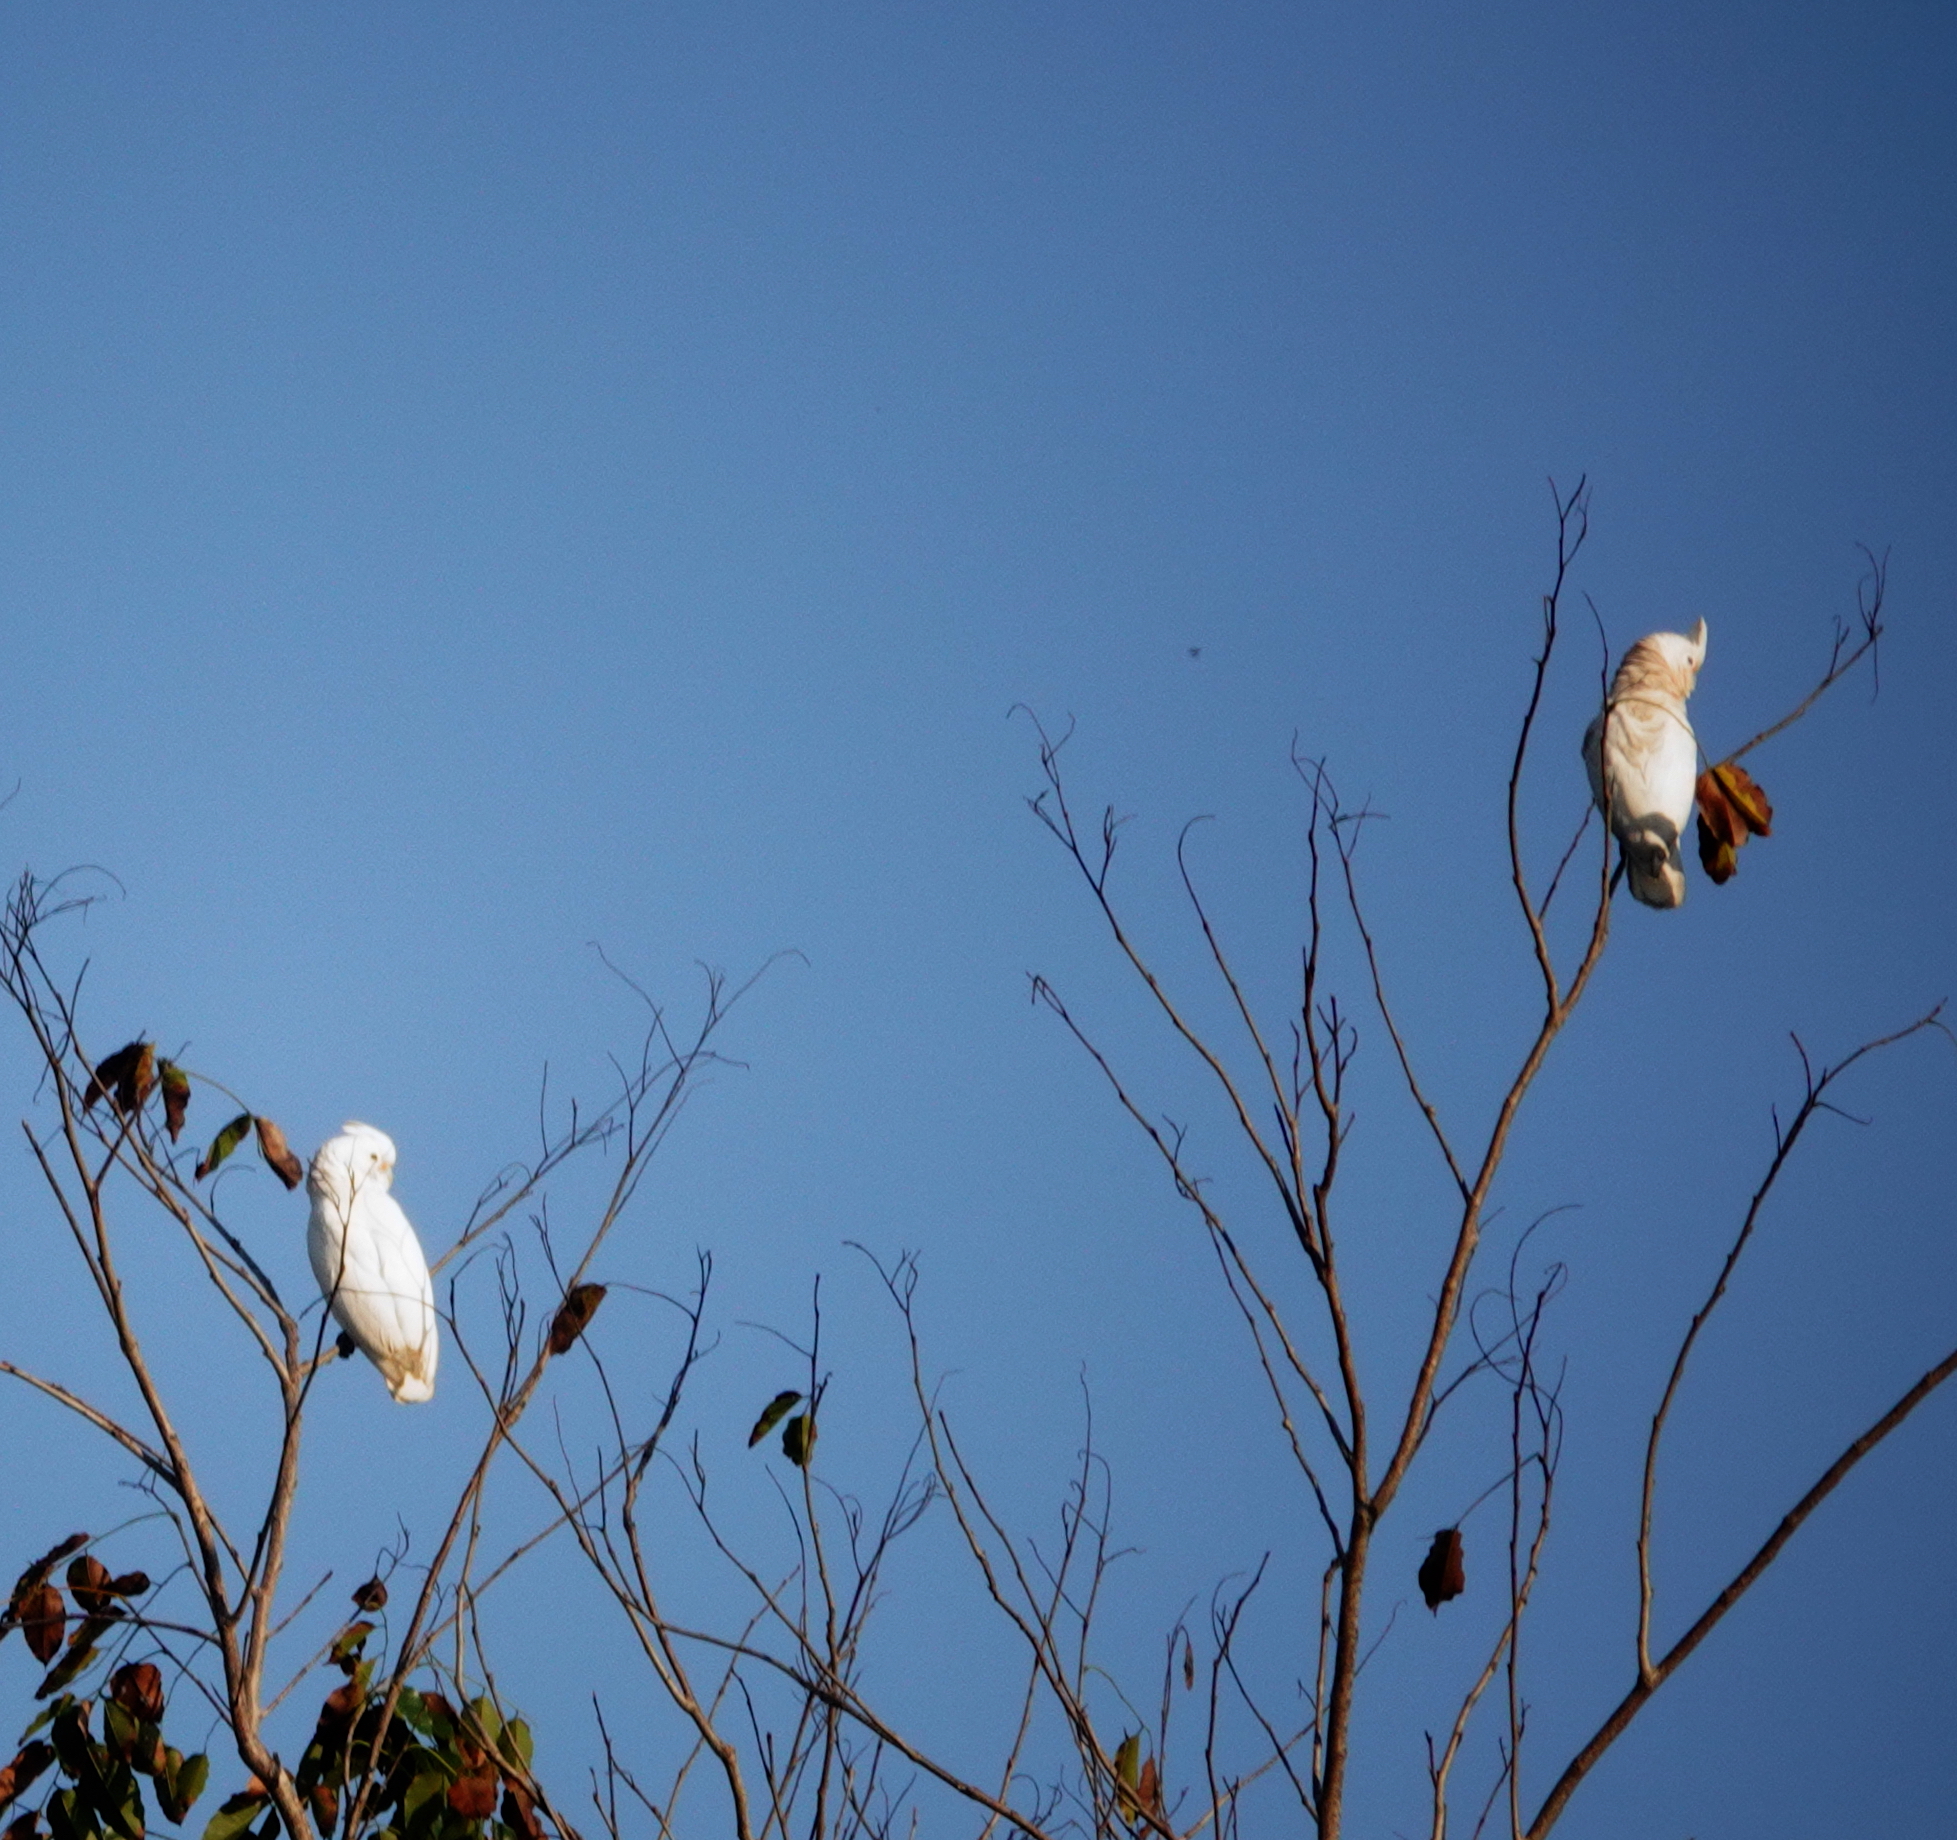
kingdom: Animalia
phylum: Chordata
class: Aves
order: Psittaciformes
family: Psittacidae
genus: Cacatua
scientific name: Cacatua goffiniana
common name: Tanimbar corella
